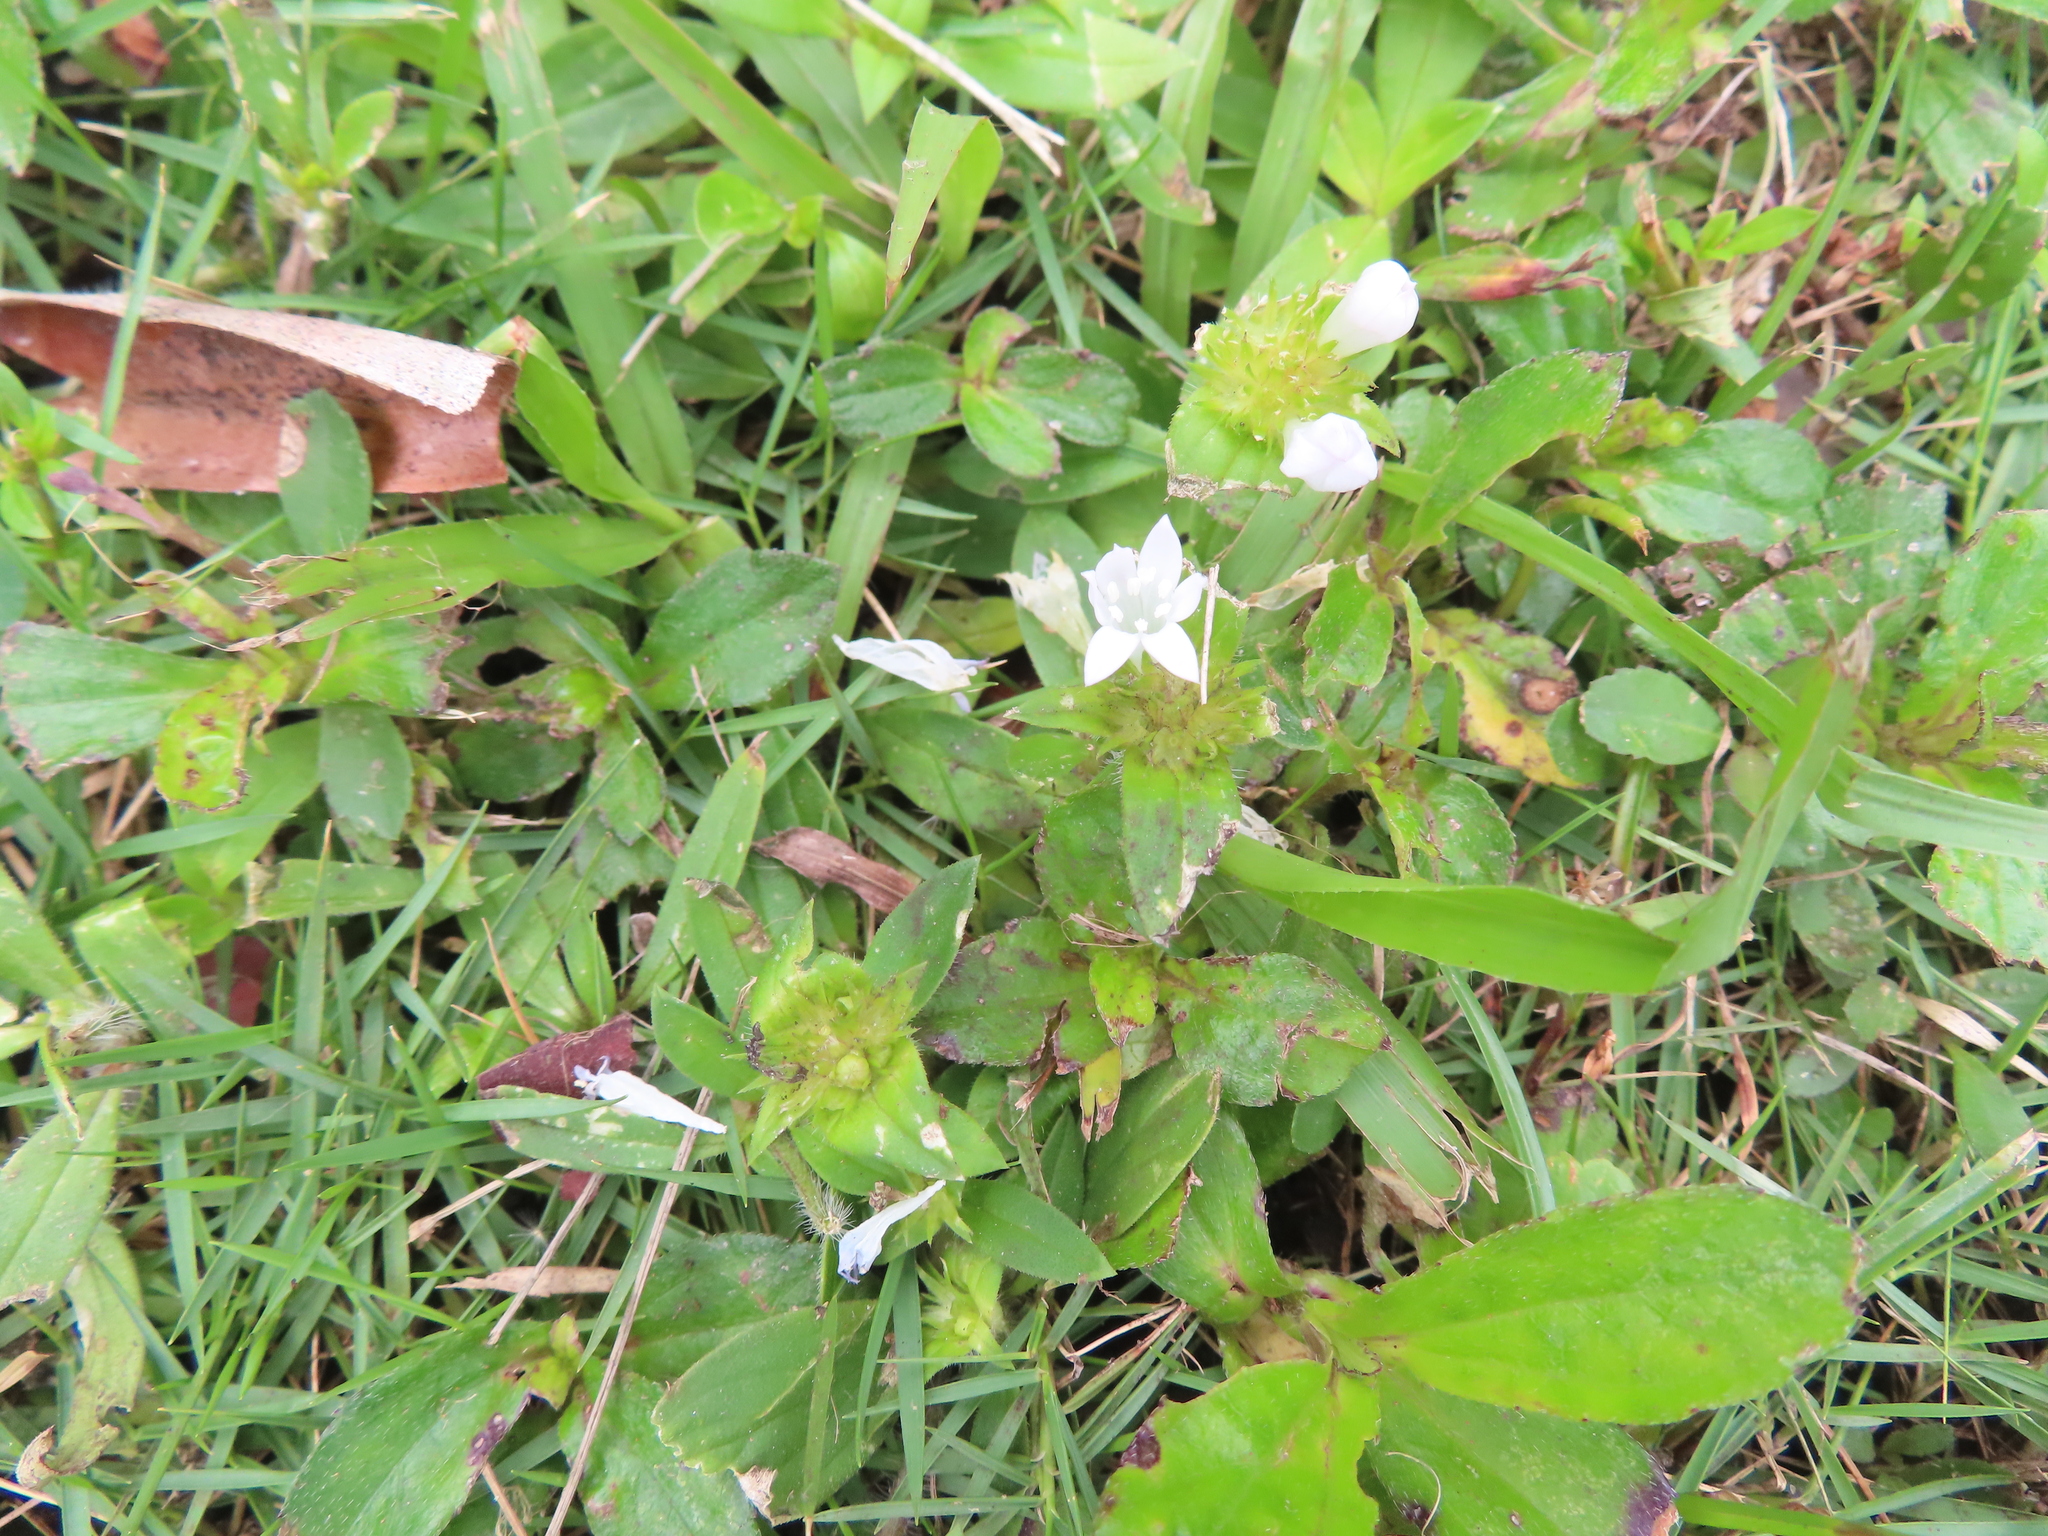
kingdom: Plantae
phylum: Tracheophyta
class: Magnoliopsida
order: Gentianales
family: Rubiaceae
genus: Richardia
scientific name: Richardia grandiflora
